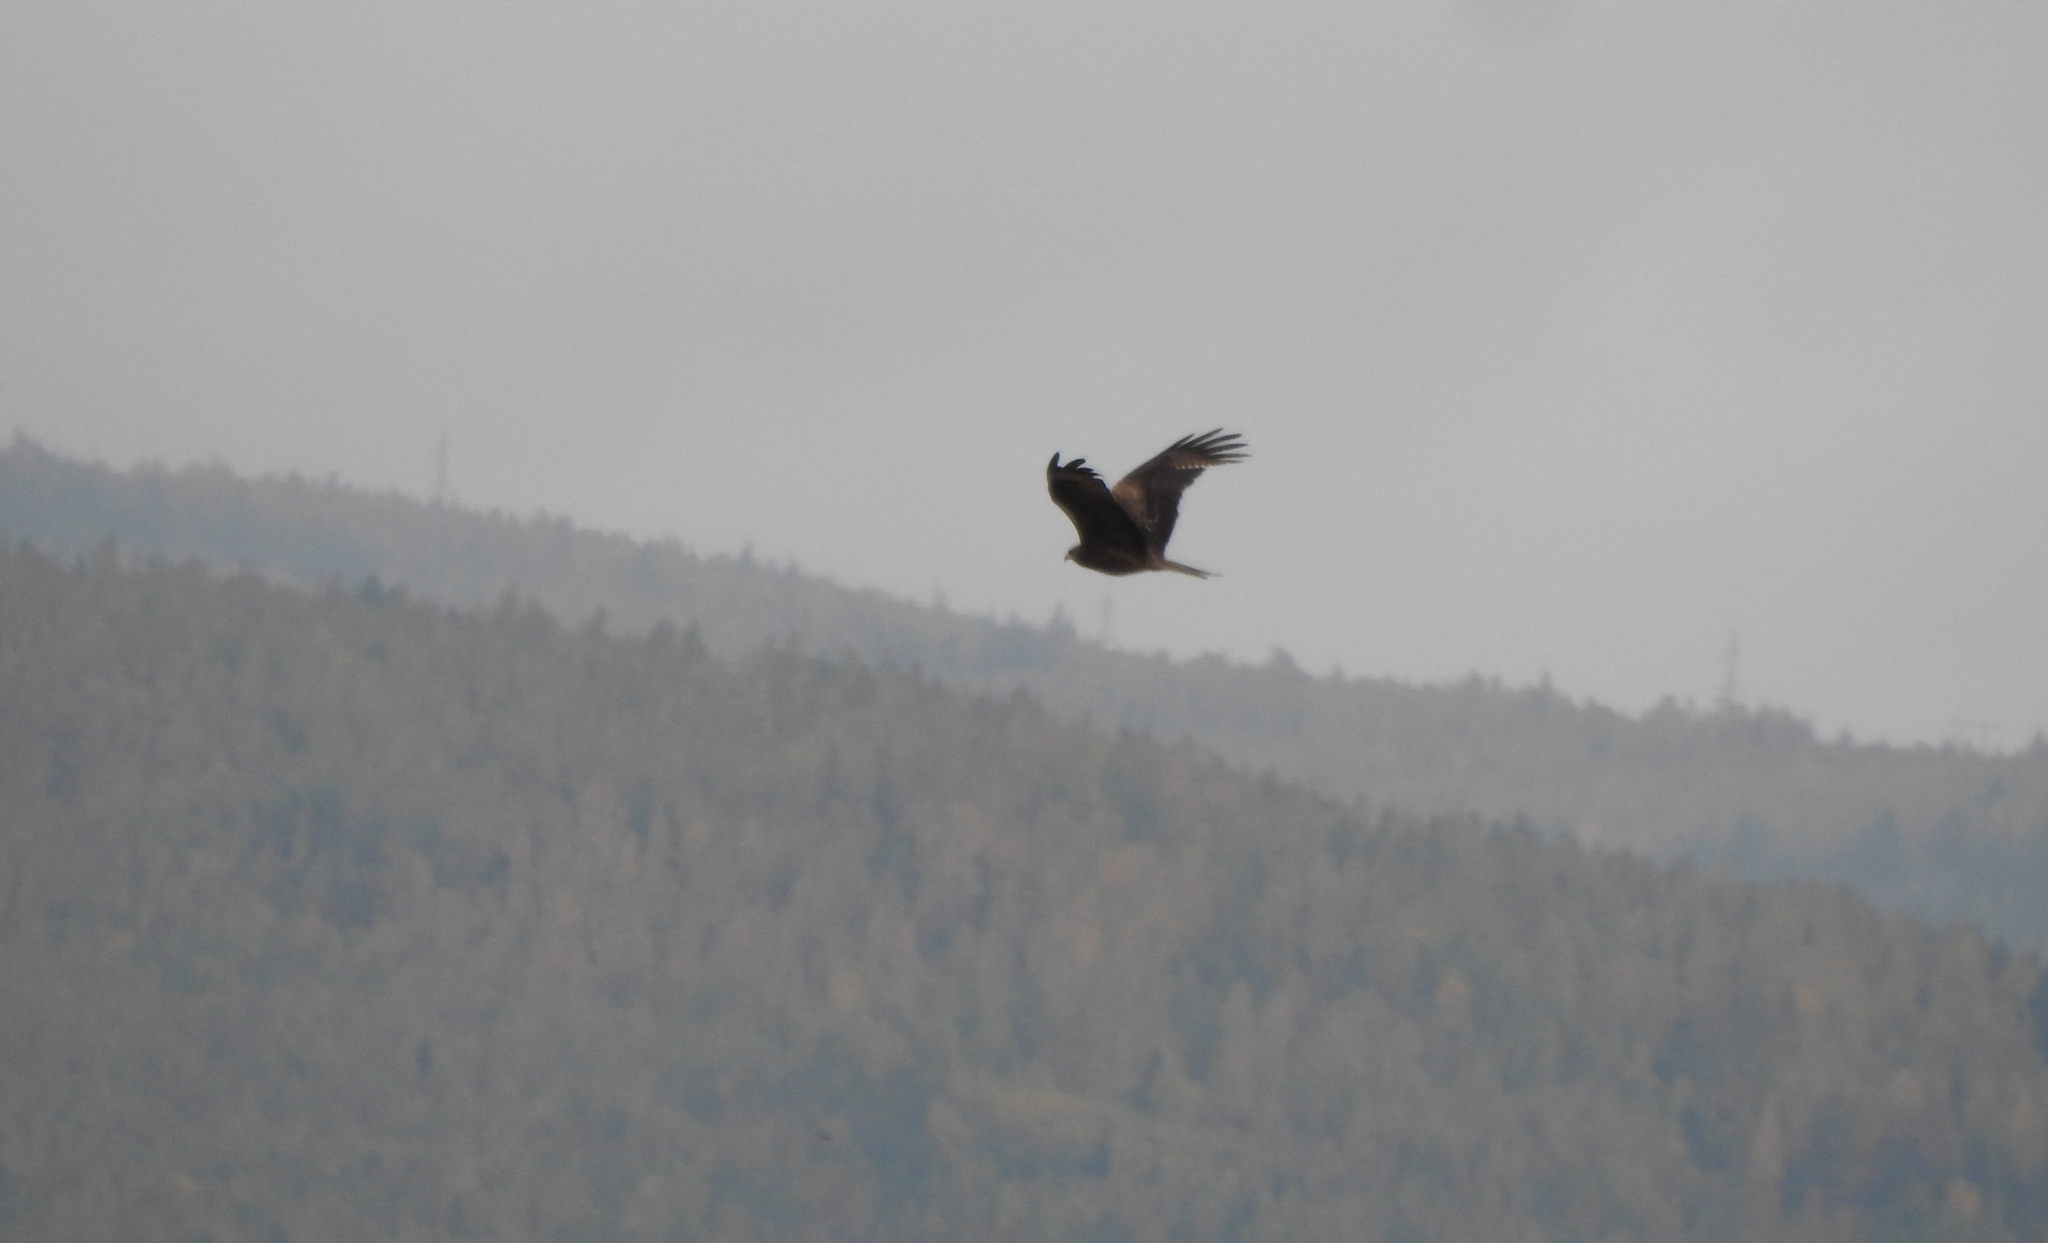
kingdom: Animalia
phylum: Chordata
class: Aves
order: Accipitriformes
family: Accipitridae
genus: Milvus
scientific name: Milvus migrans
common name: Black kite
